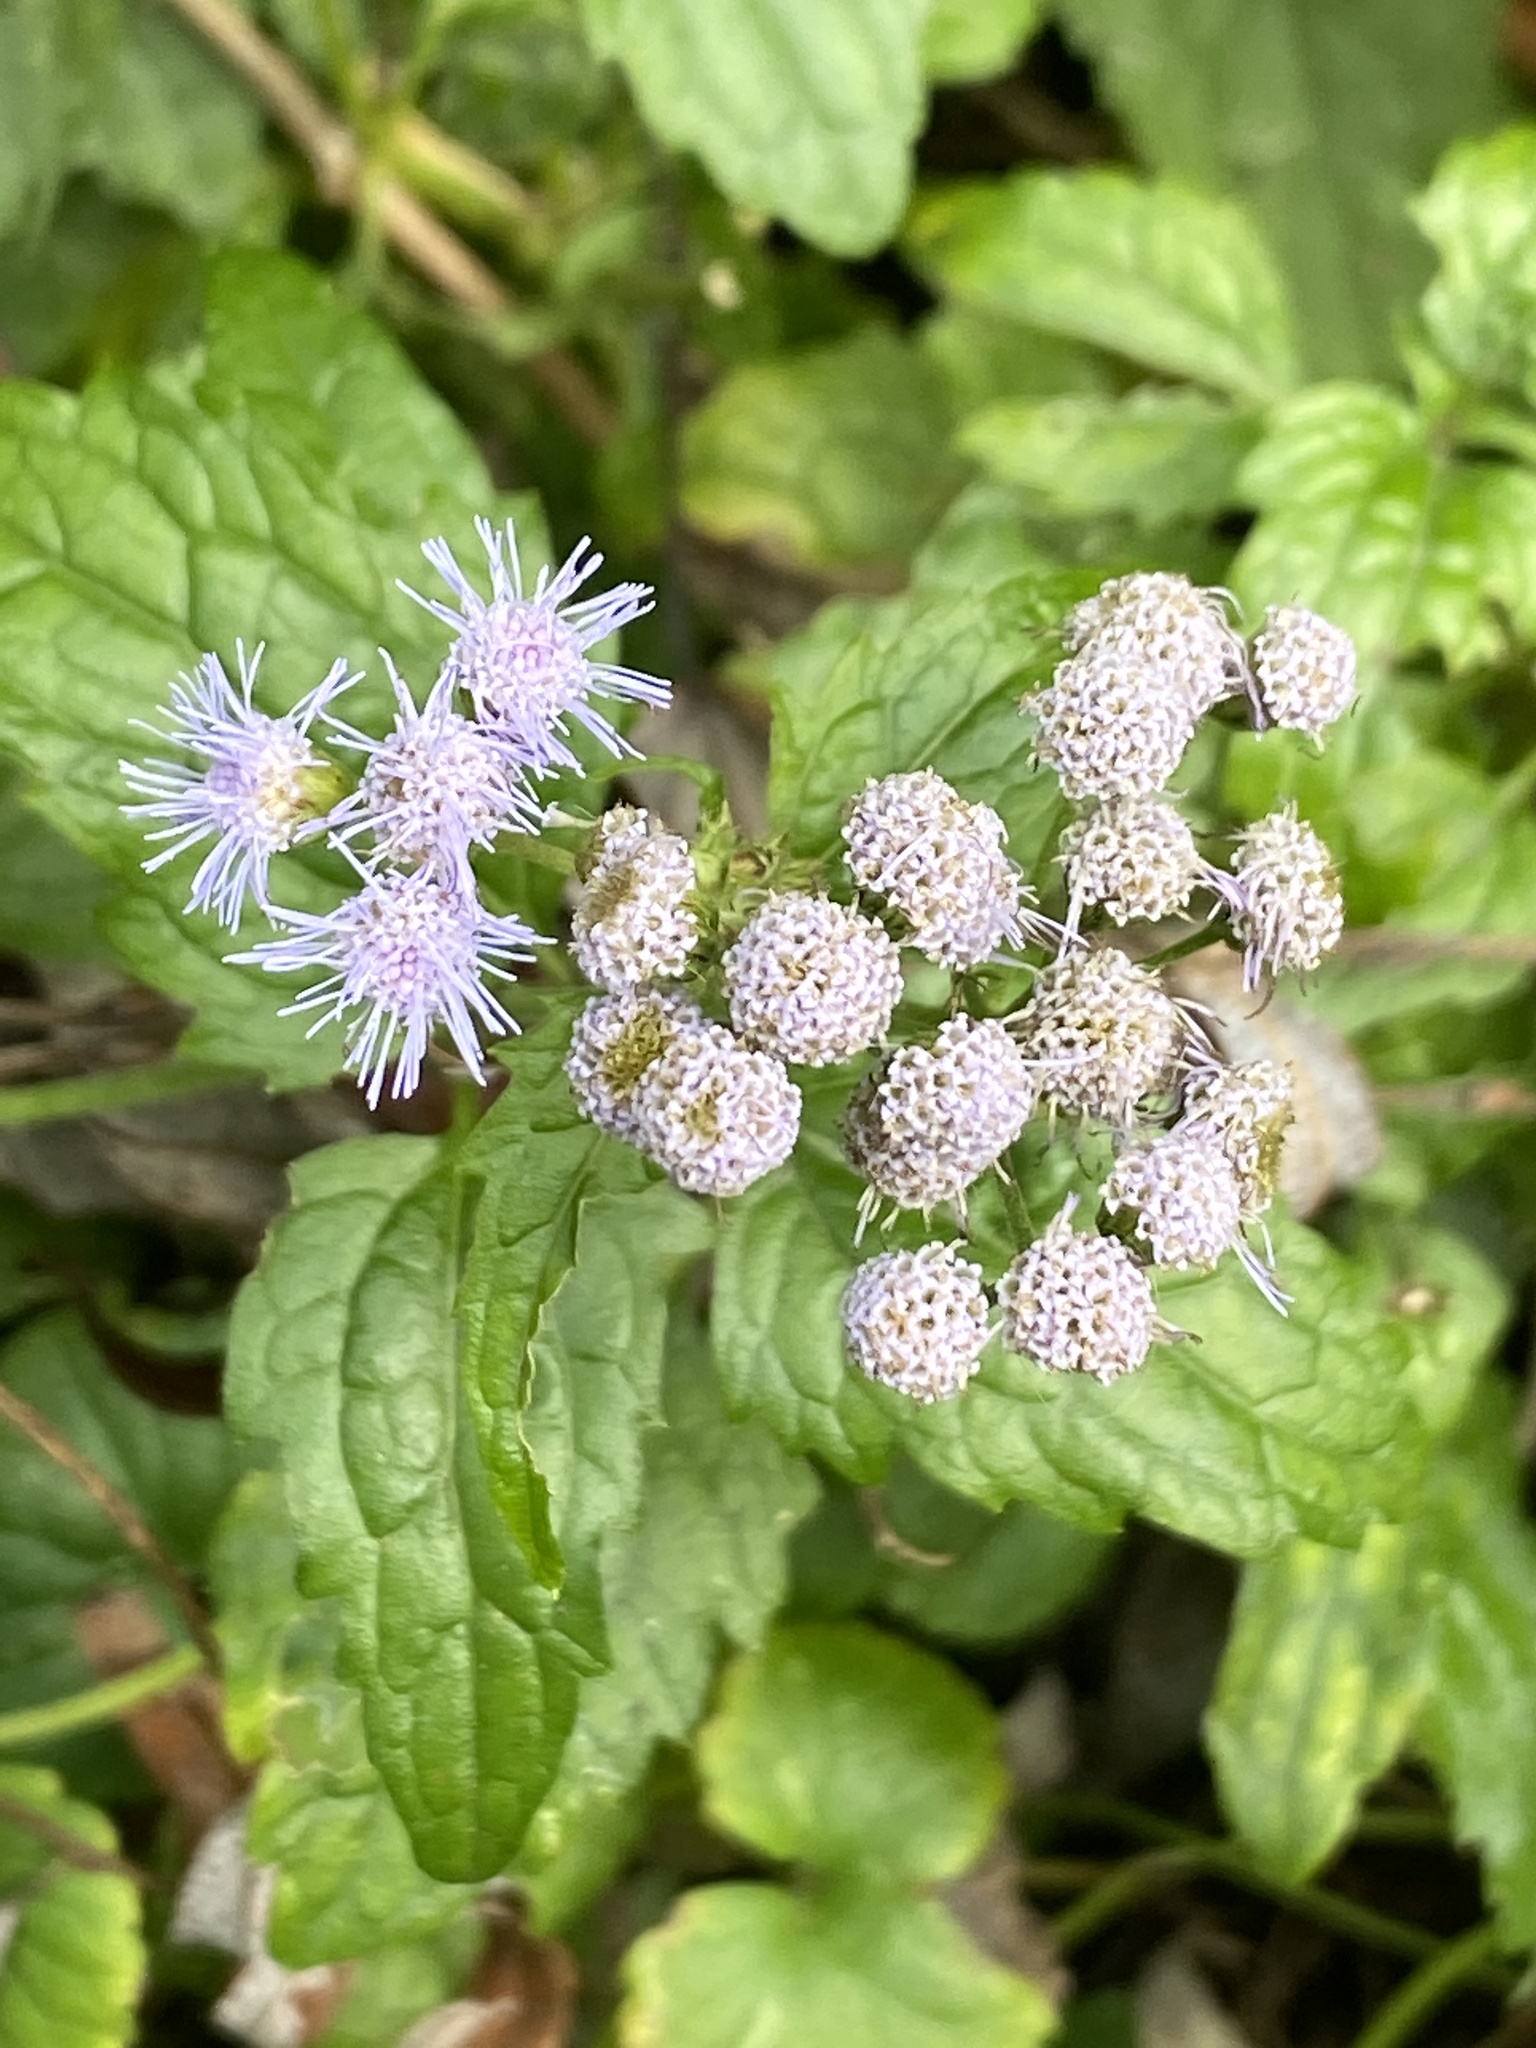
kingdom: Plantae
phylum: Tracheophyta
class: Magnoliopsida
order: Asterales
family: Asteraceae
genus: Conoclinium
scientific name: Conoclinium coelestinum
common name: Blue mistflower
